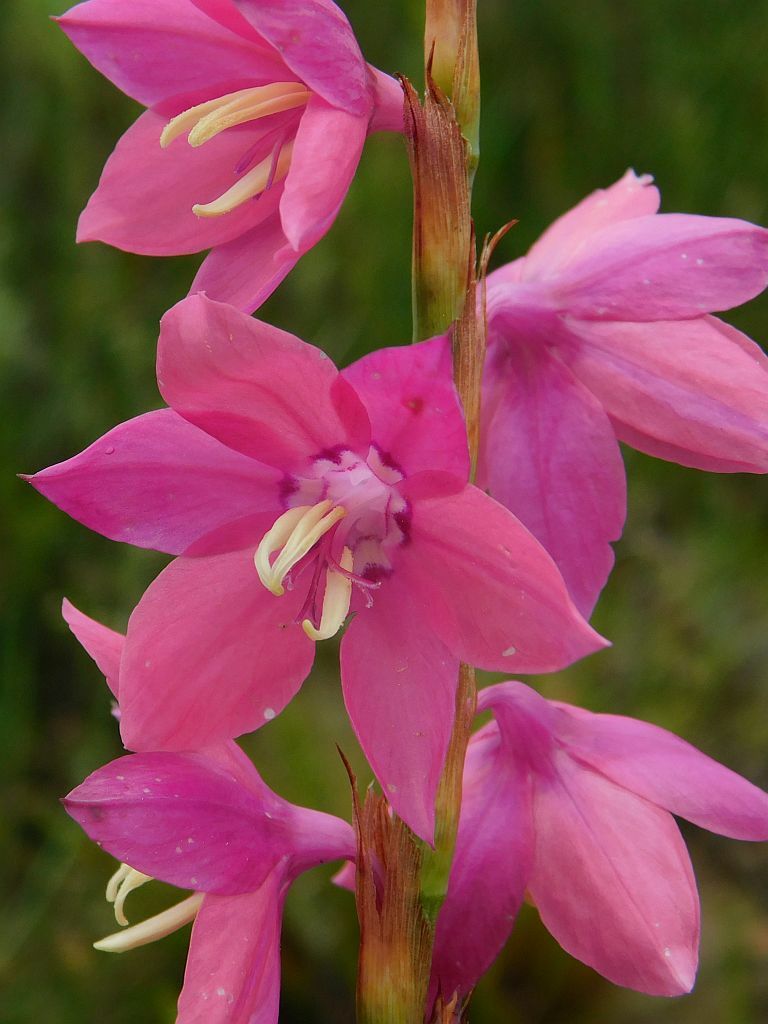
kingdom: Plantae
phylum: Tracheophyta
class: Liliopsida
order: Asparagales
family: Iridaceae
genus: Watsonia
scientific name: Watsonia marginata
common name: Fragrant bugle-lily
